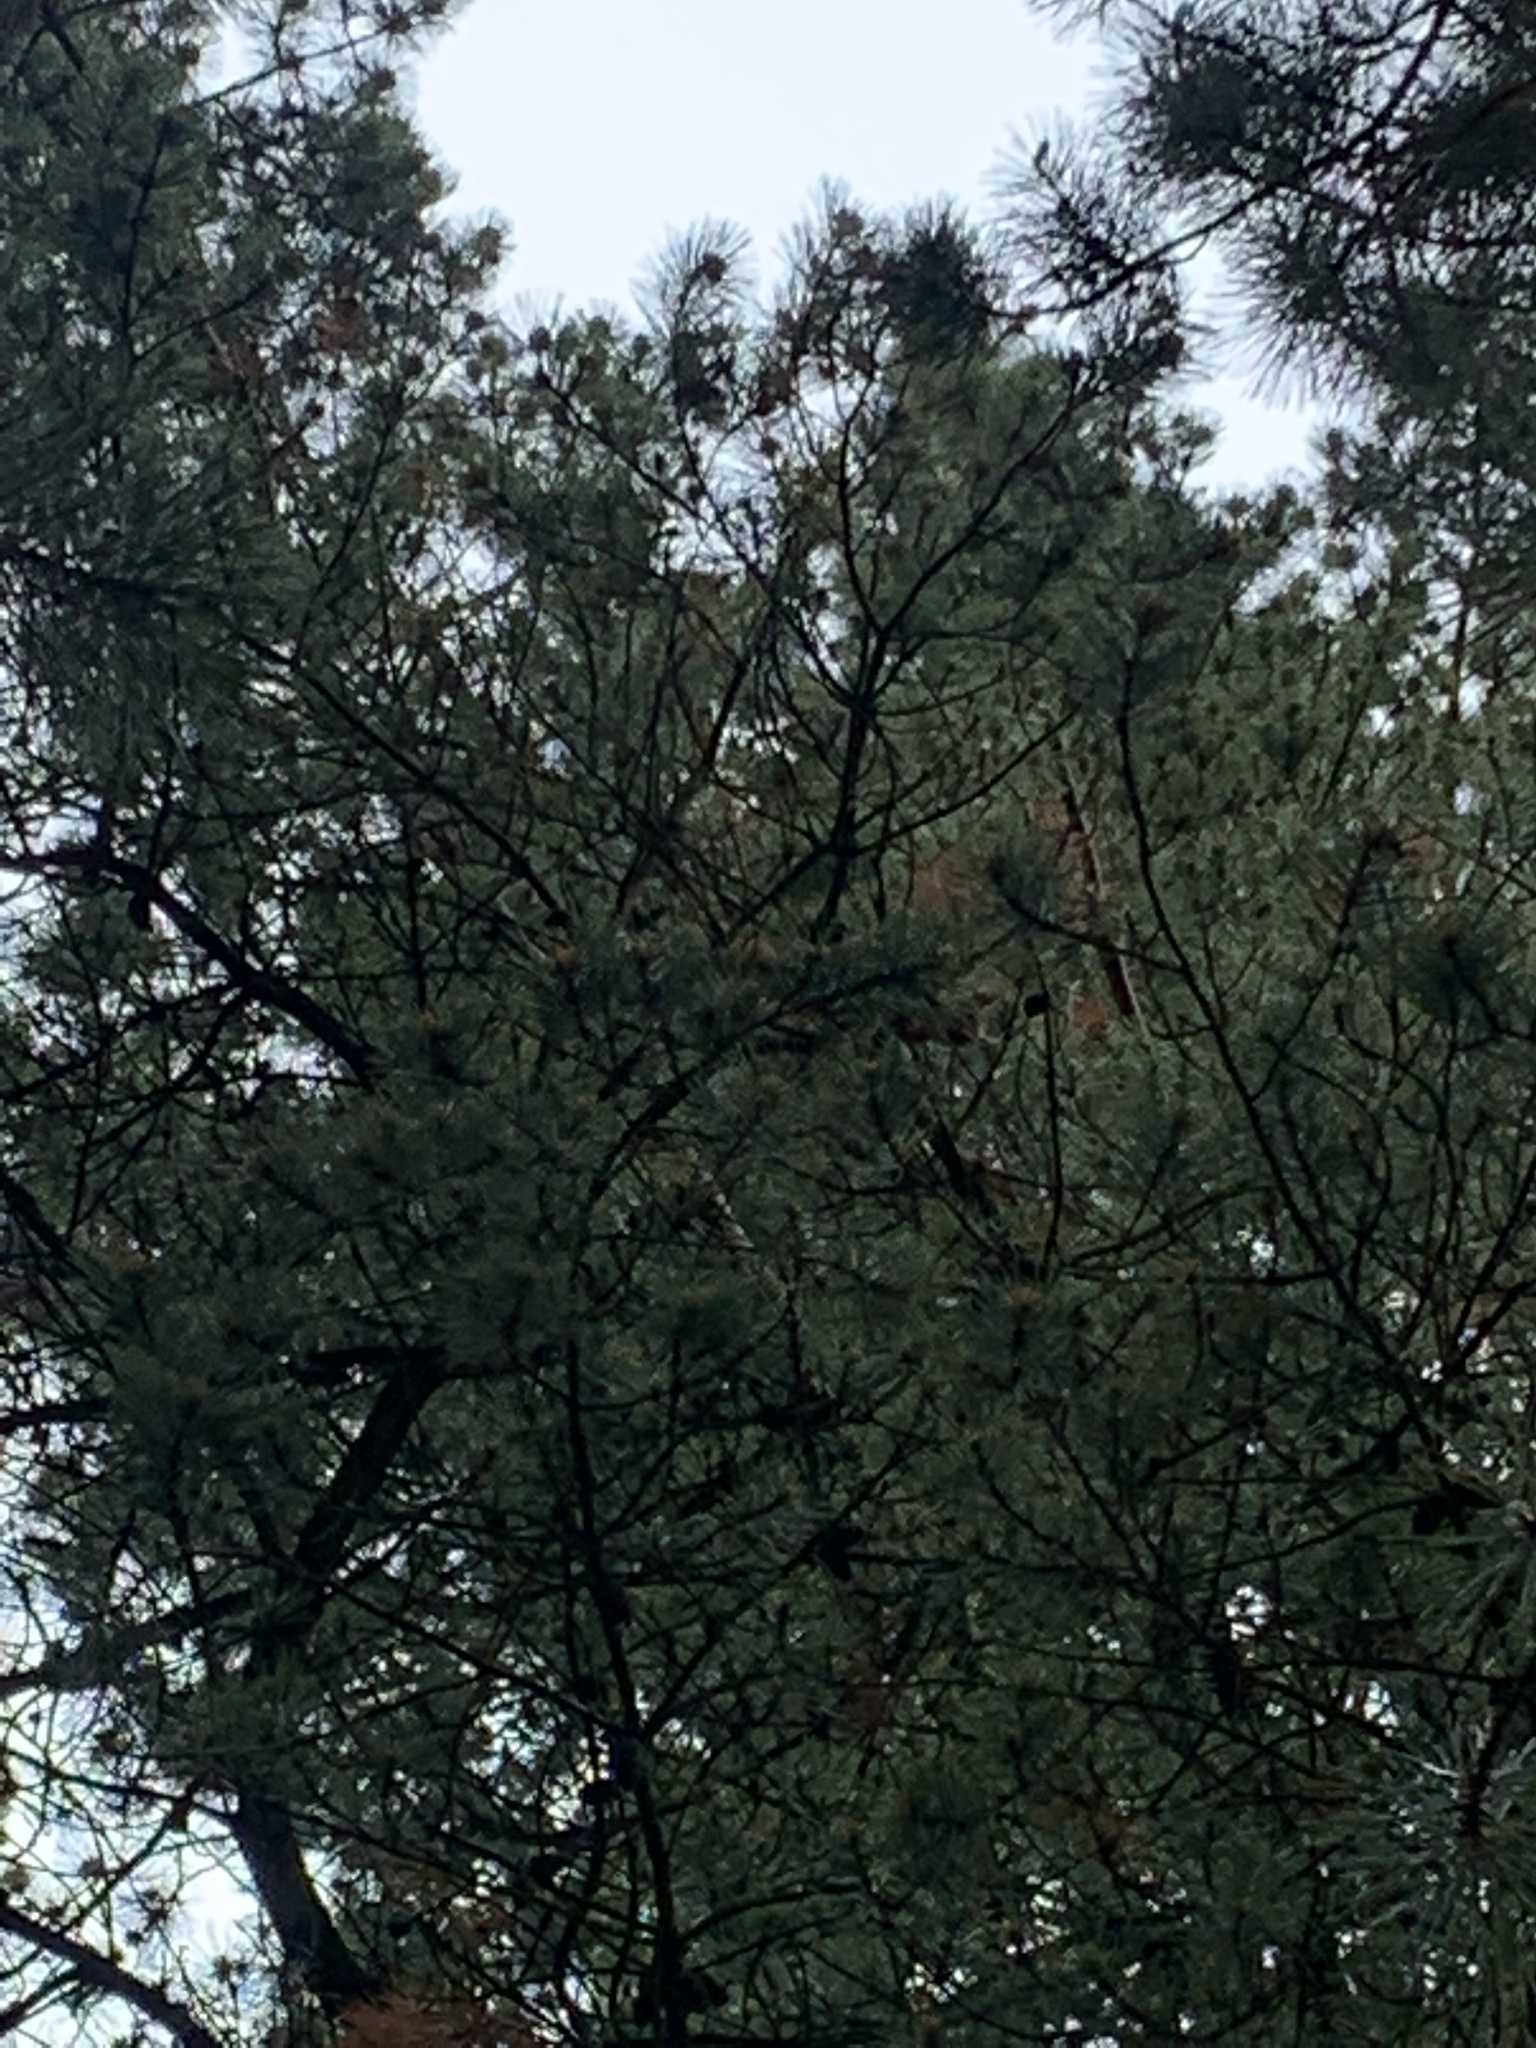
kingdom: Animalia
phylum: Chordata
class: Mammalia
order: Rodentia
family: Sciuridae
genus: Sciurus
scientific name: Sciurus vulgaris
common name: Eurasian red squirrel
